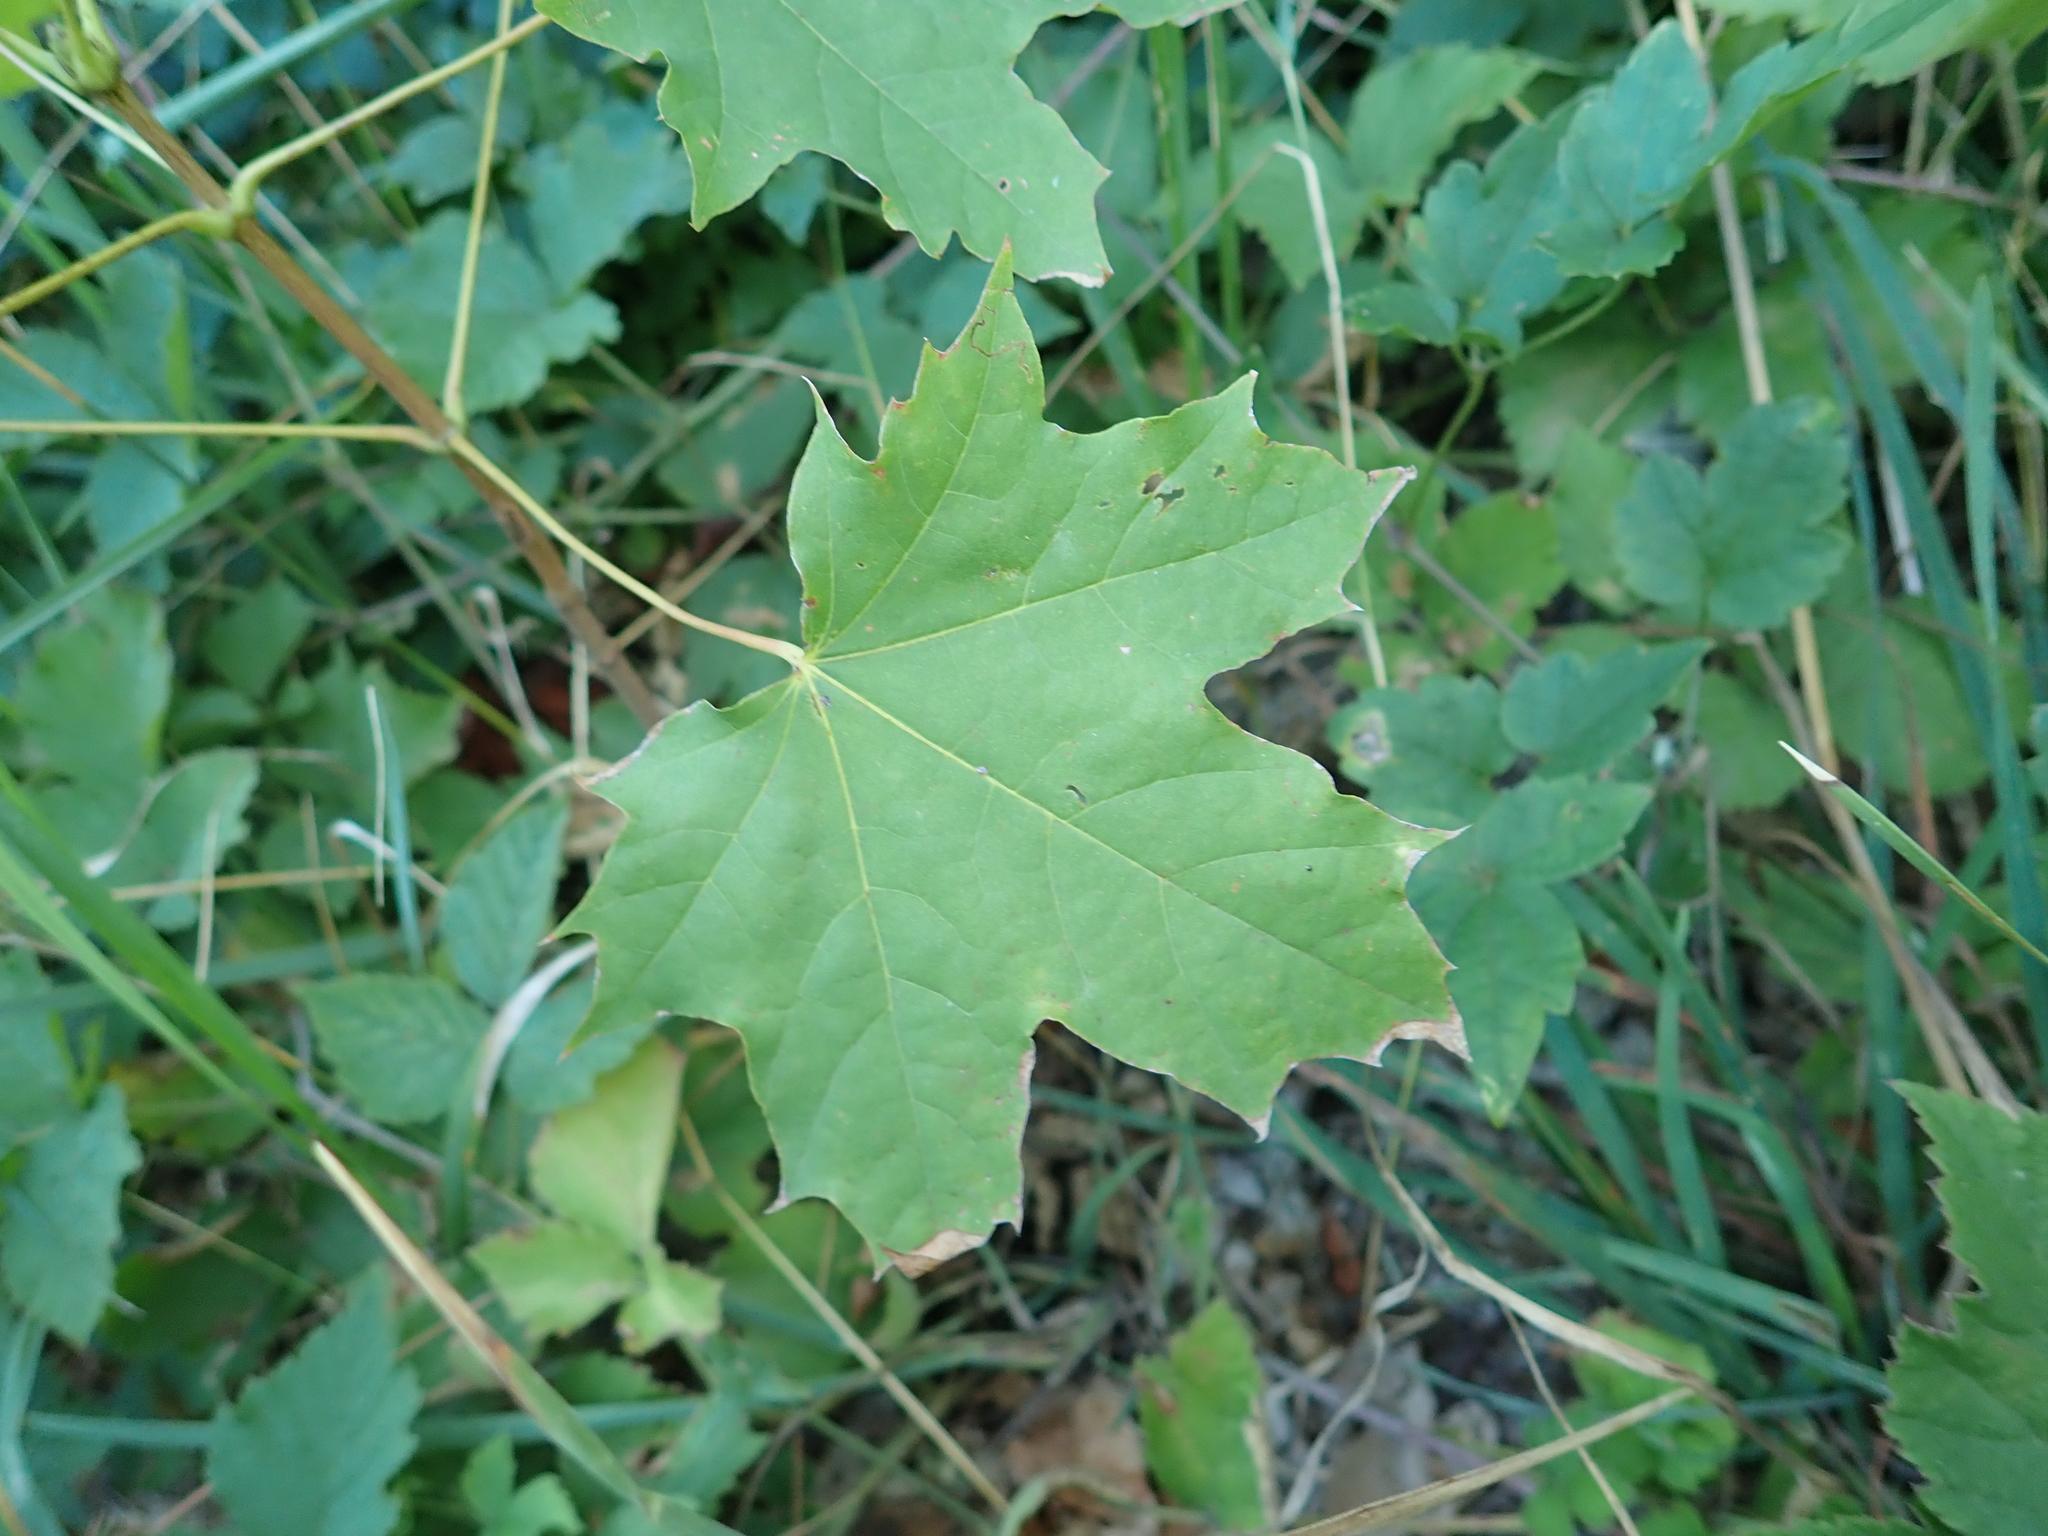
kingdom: Plantae
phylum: Tracheophyta
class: Magnoliopsida
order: Sapindales
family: Sapindaceae
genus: Acer
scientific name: Acer platanoides
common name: Norway maple
